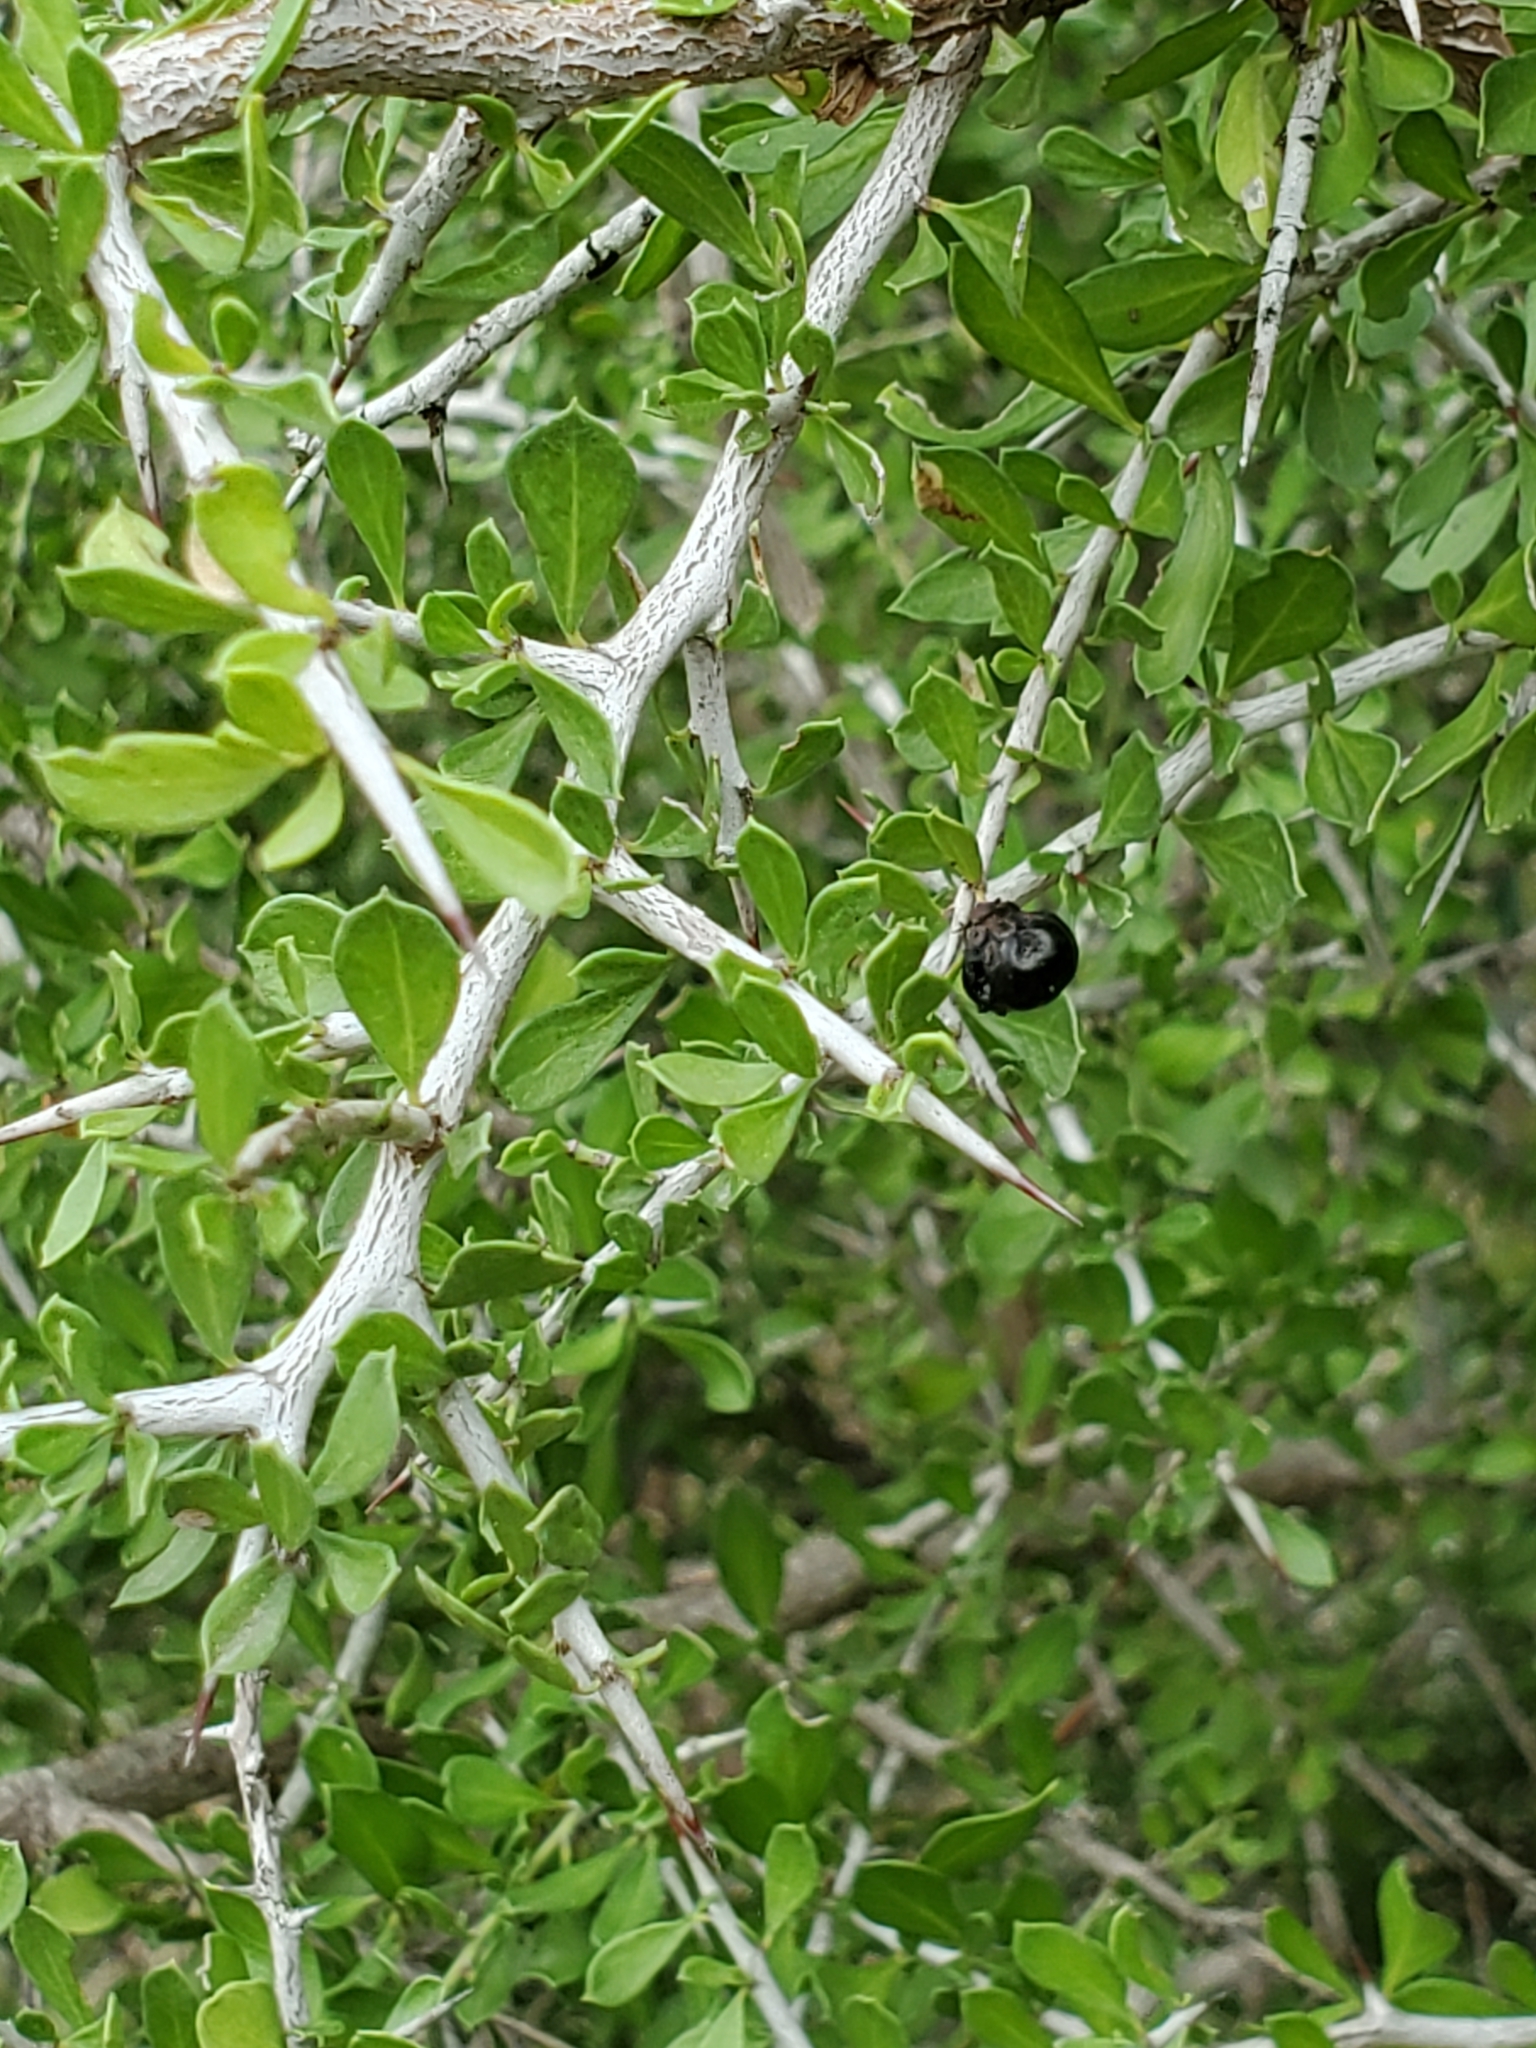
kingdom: Plantae
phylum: Tracheophyta
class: Magnoliopsida
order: Rosales
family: Rhamnaceae
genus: Condalia
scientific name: Condalia viridis
